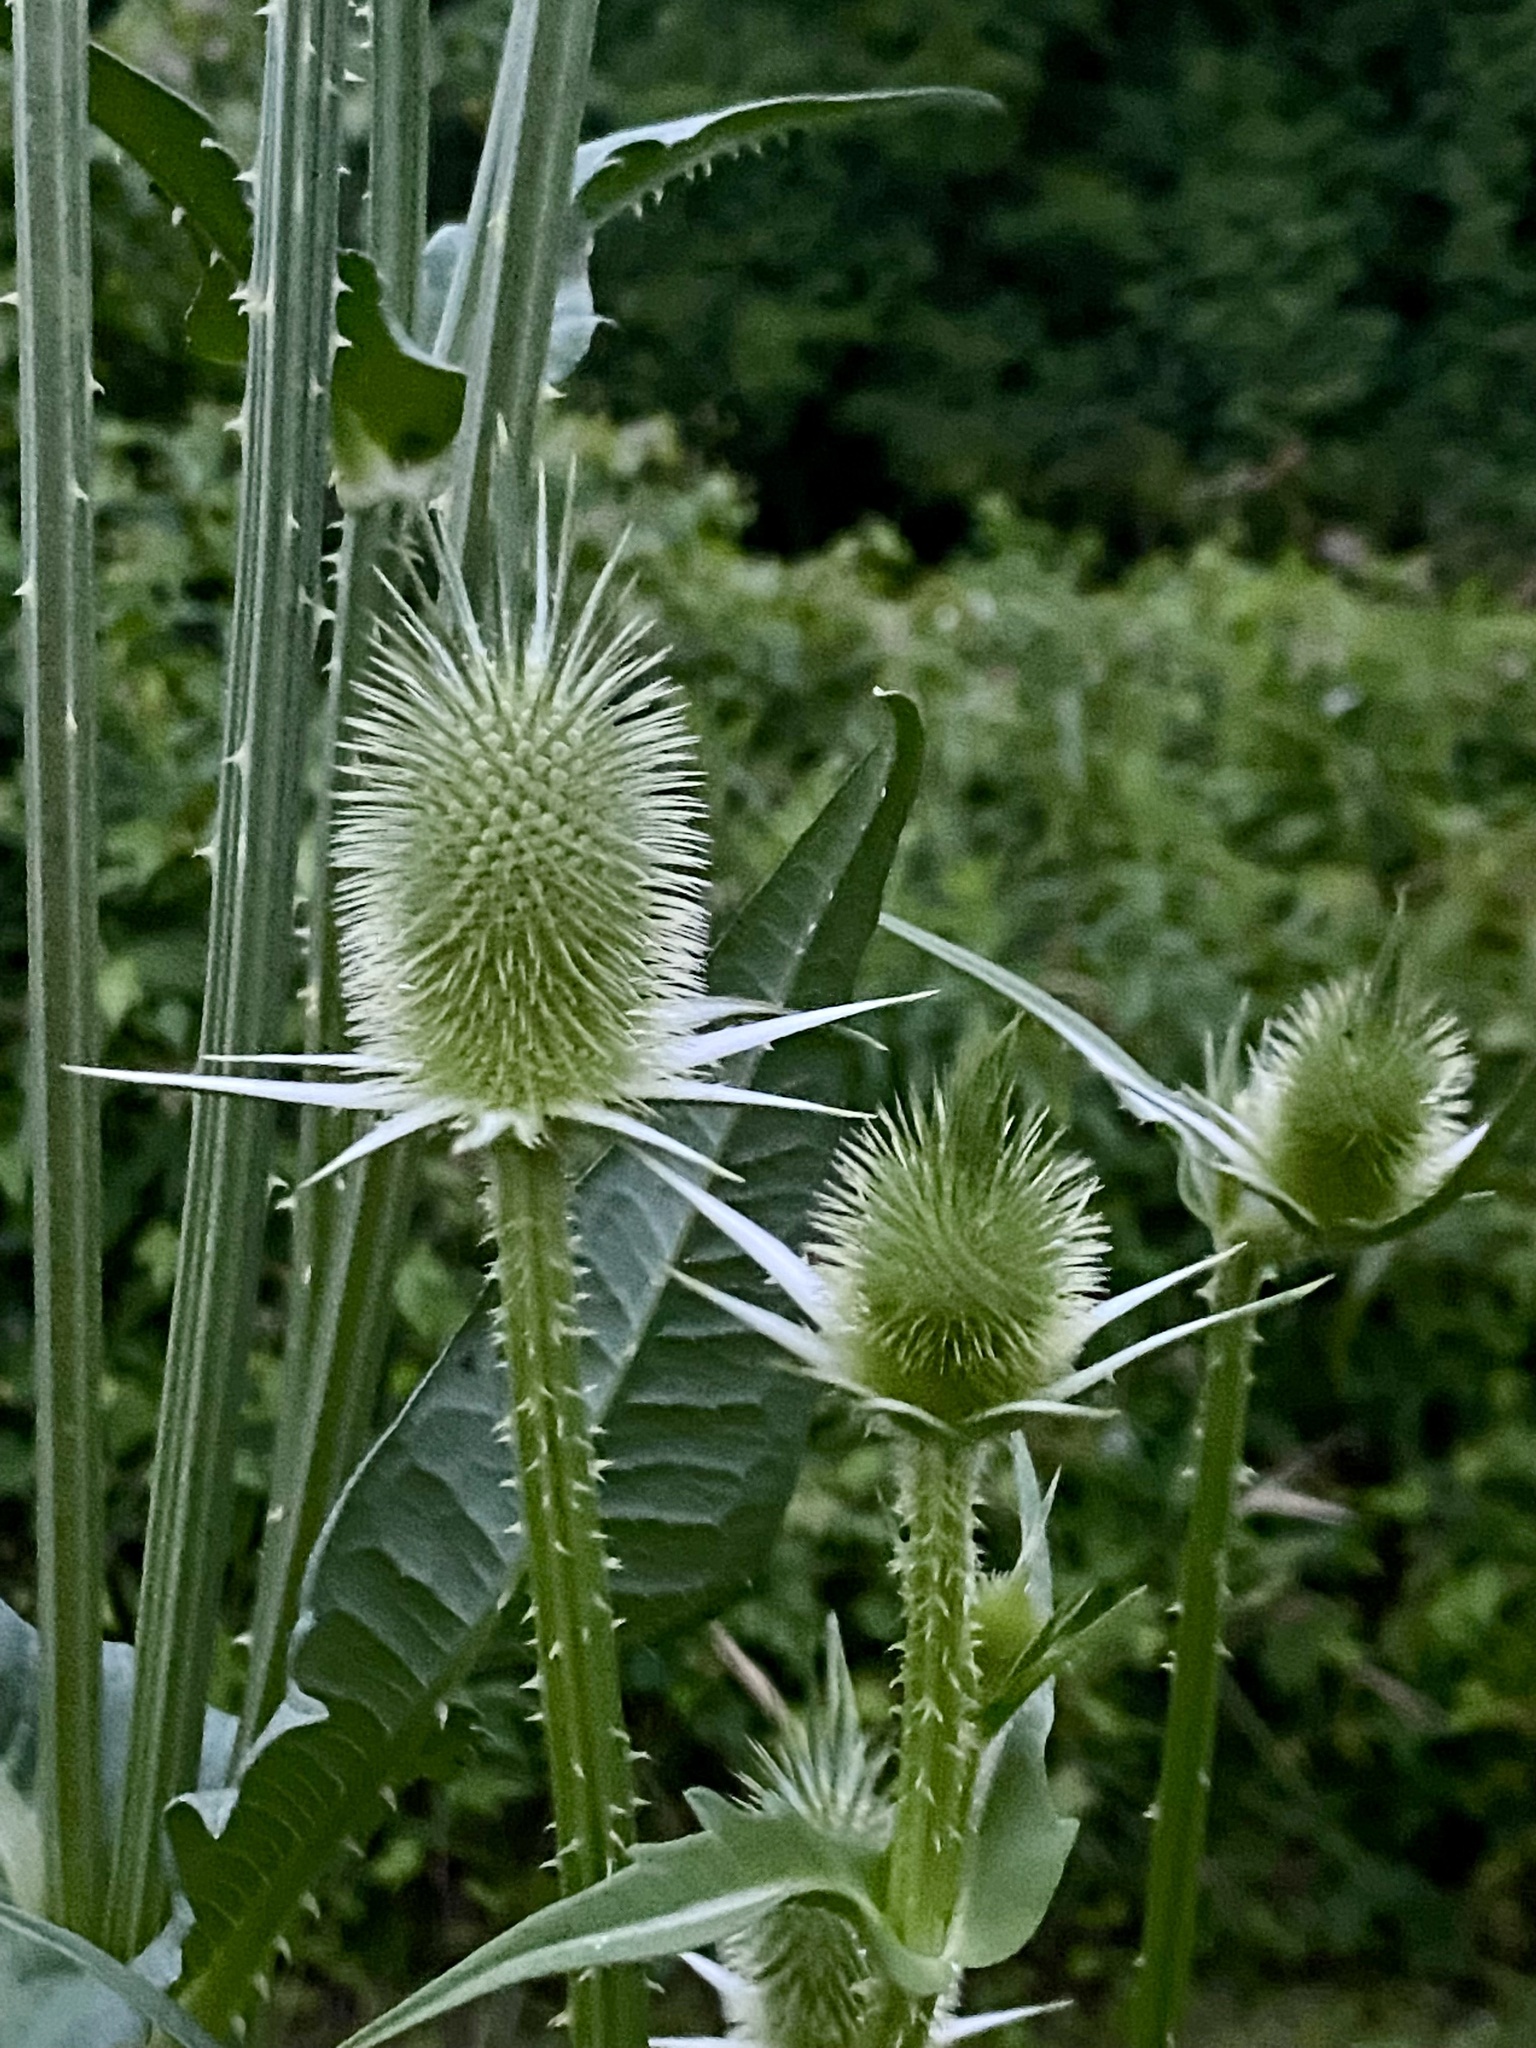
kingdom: Plantae
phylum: Tracheophyta
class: Magnoliopsida
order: Dipsacales
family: Caprifoliaceae
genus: Dipsacus
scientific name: Dipsacus laciniatus
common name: Cut-leaved teasel
